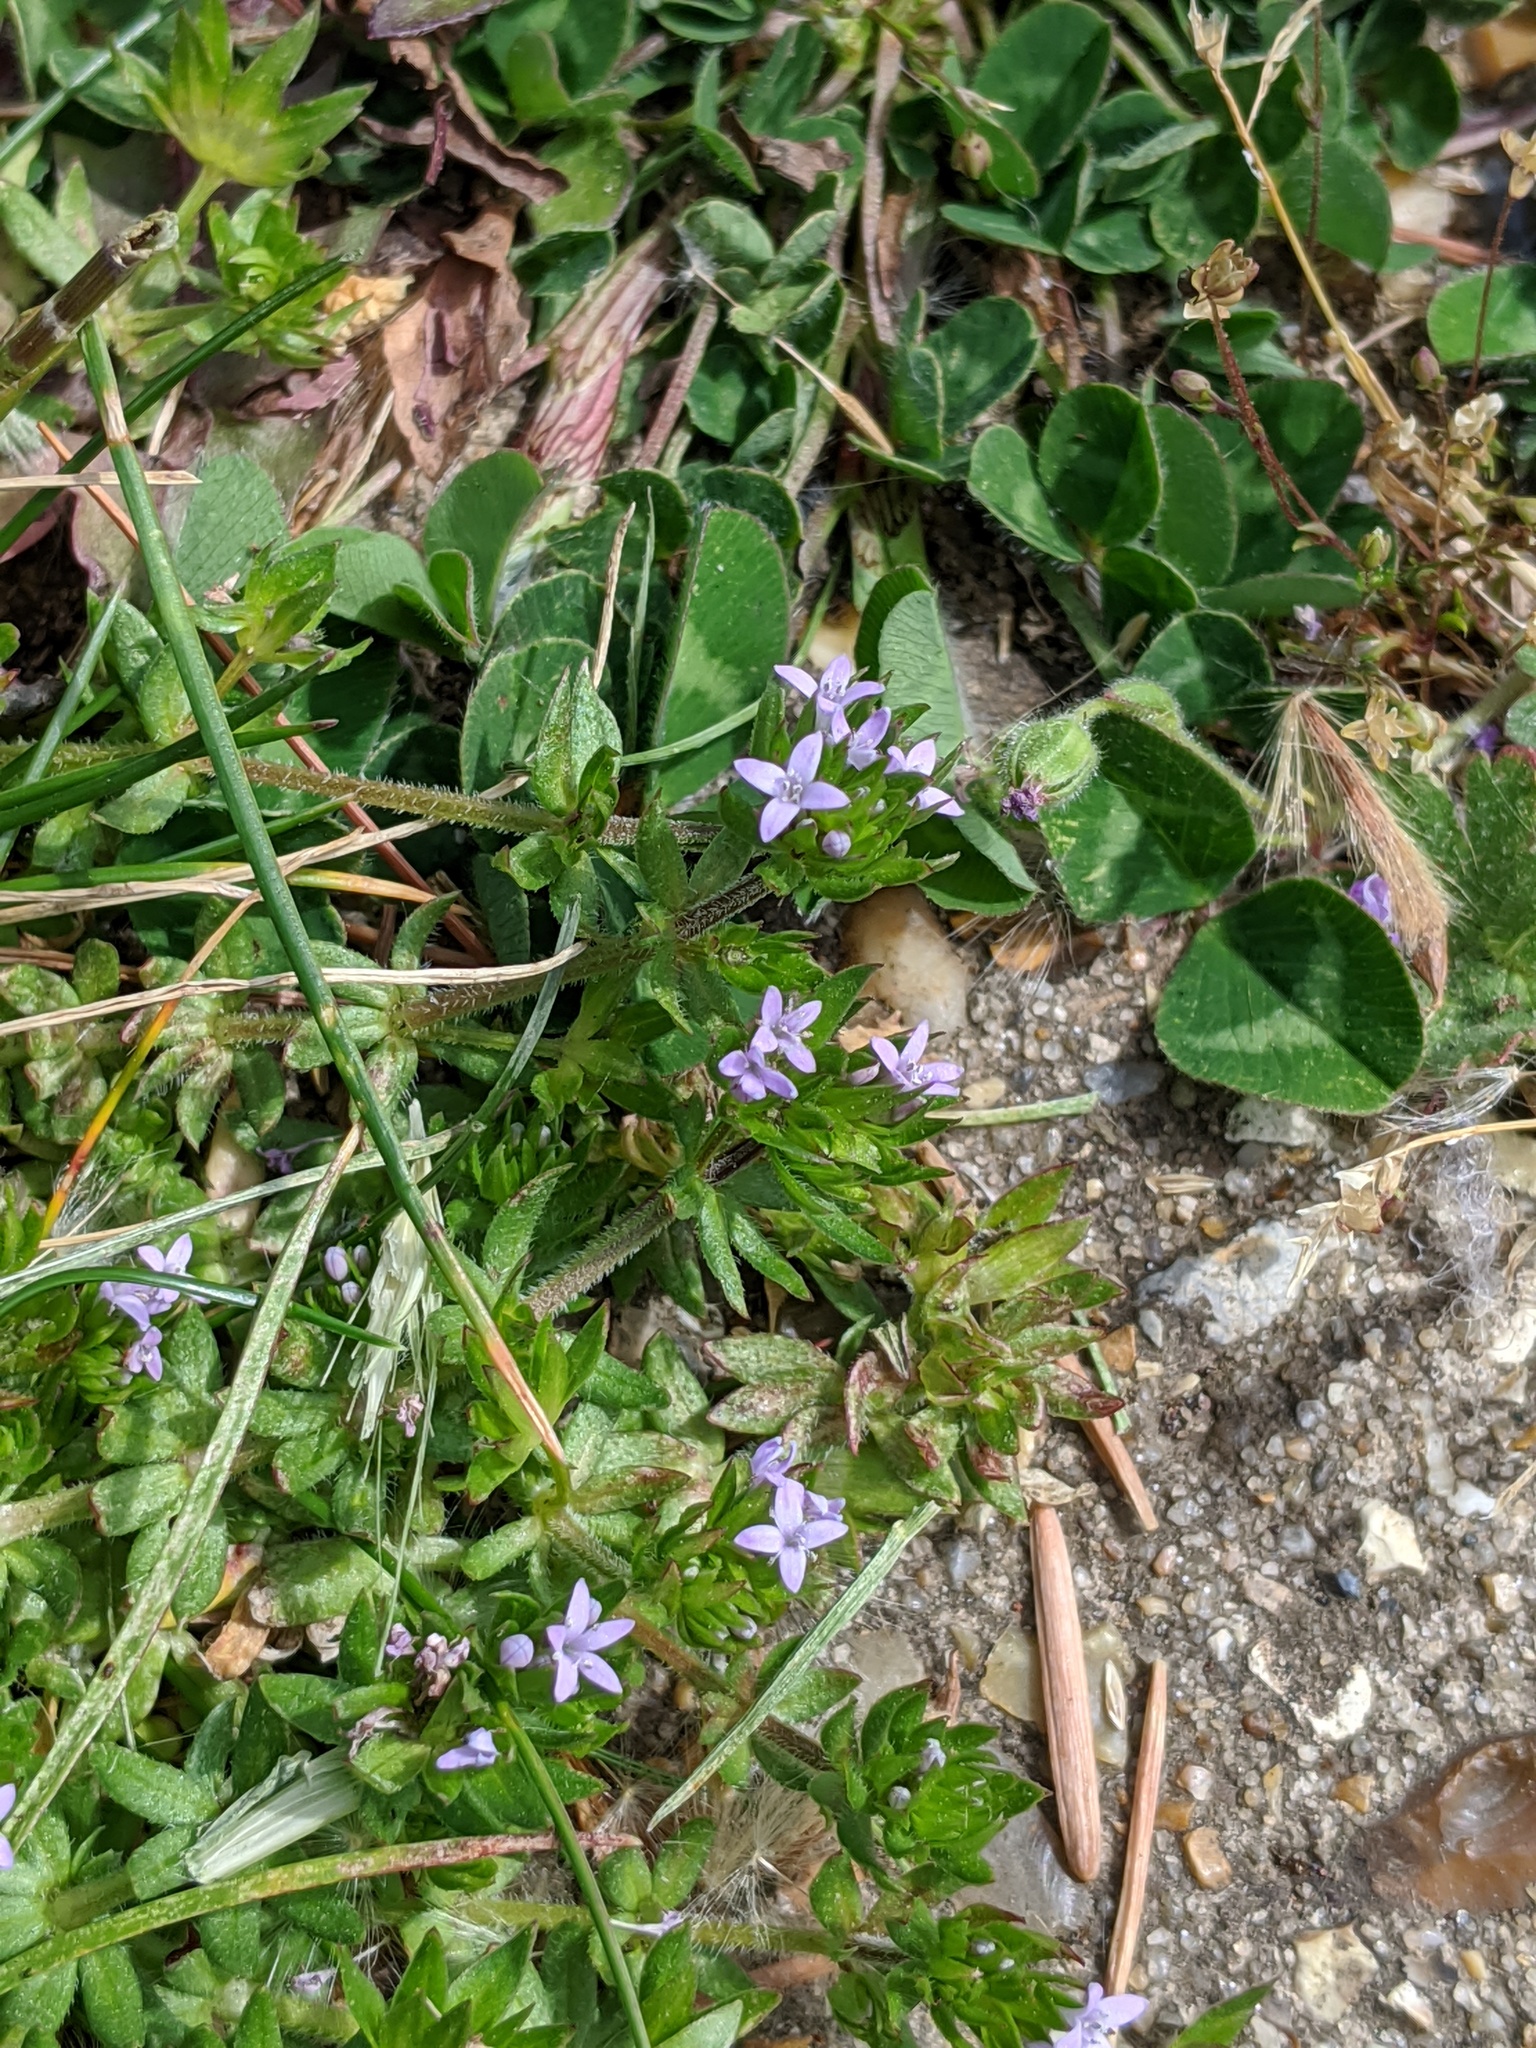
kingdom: Plantae
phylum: Tracheophyta
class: Magnoliopsida
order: Gentianales
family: Rubiaceae
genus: Sherardia
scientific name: Sherardia arvensis
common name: Field madder
